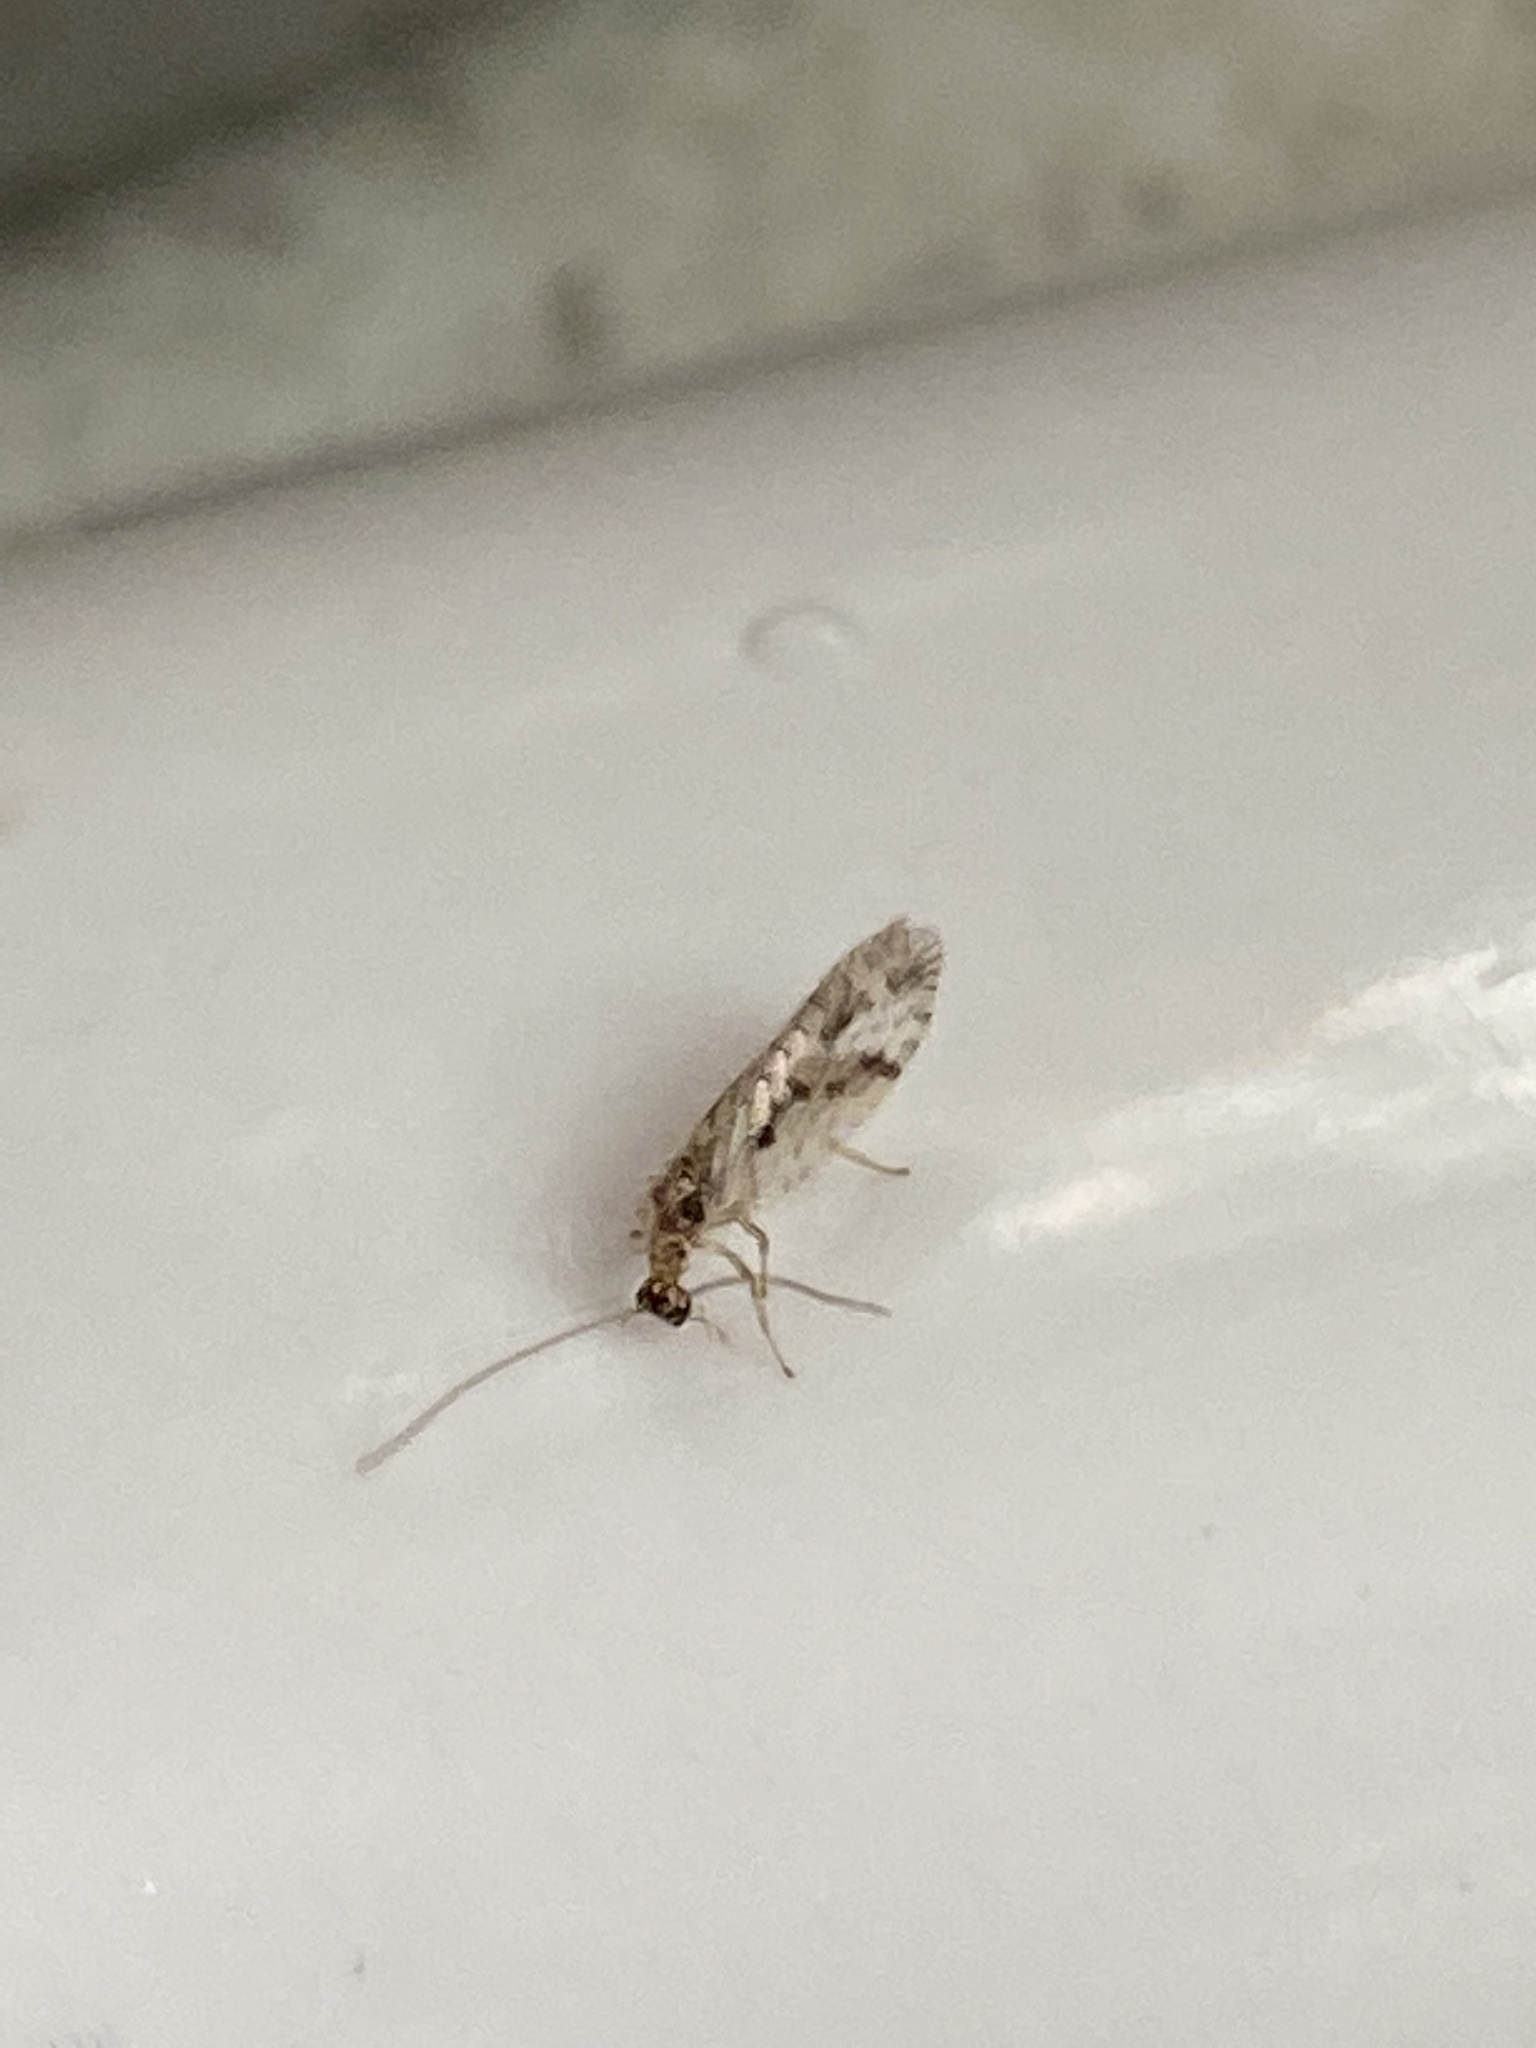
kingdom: Animalia
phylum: Arthropoda
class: Insecta
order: Neuroptera
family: Hemerobiidae
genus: Micromus
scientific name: Micromus variegatus
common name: Brown lacewing
